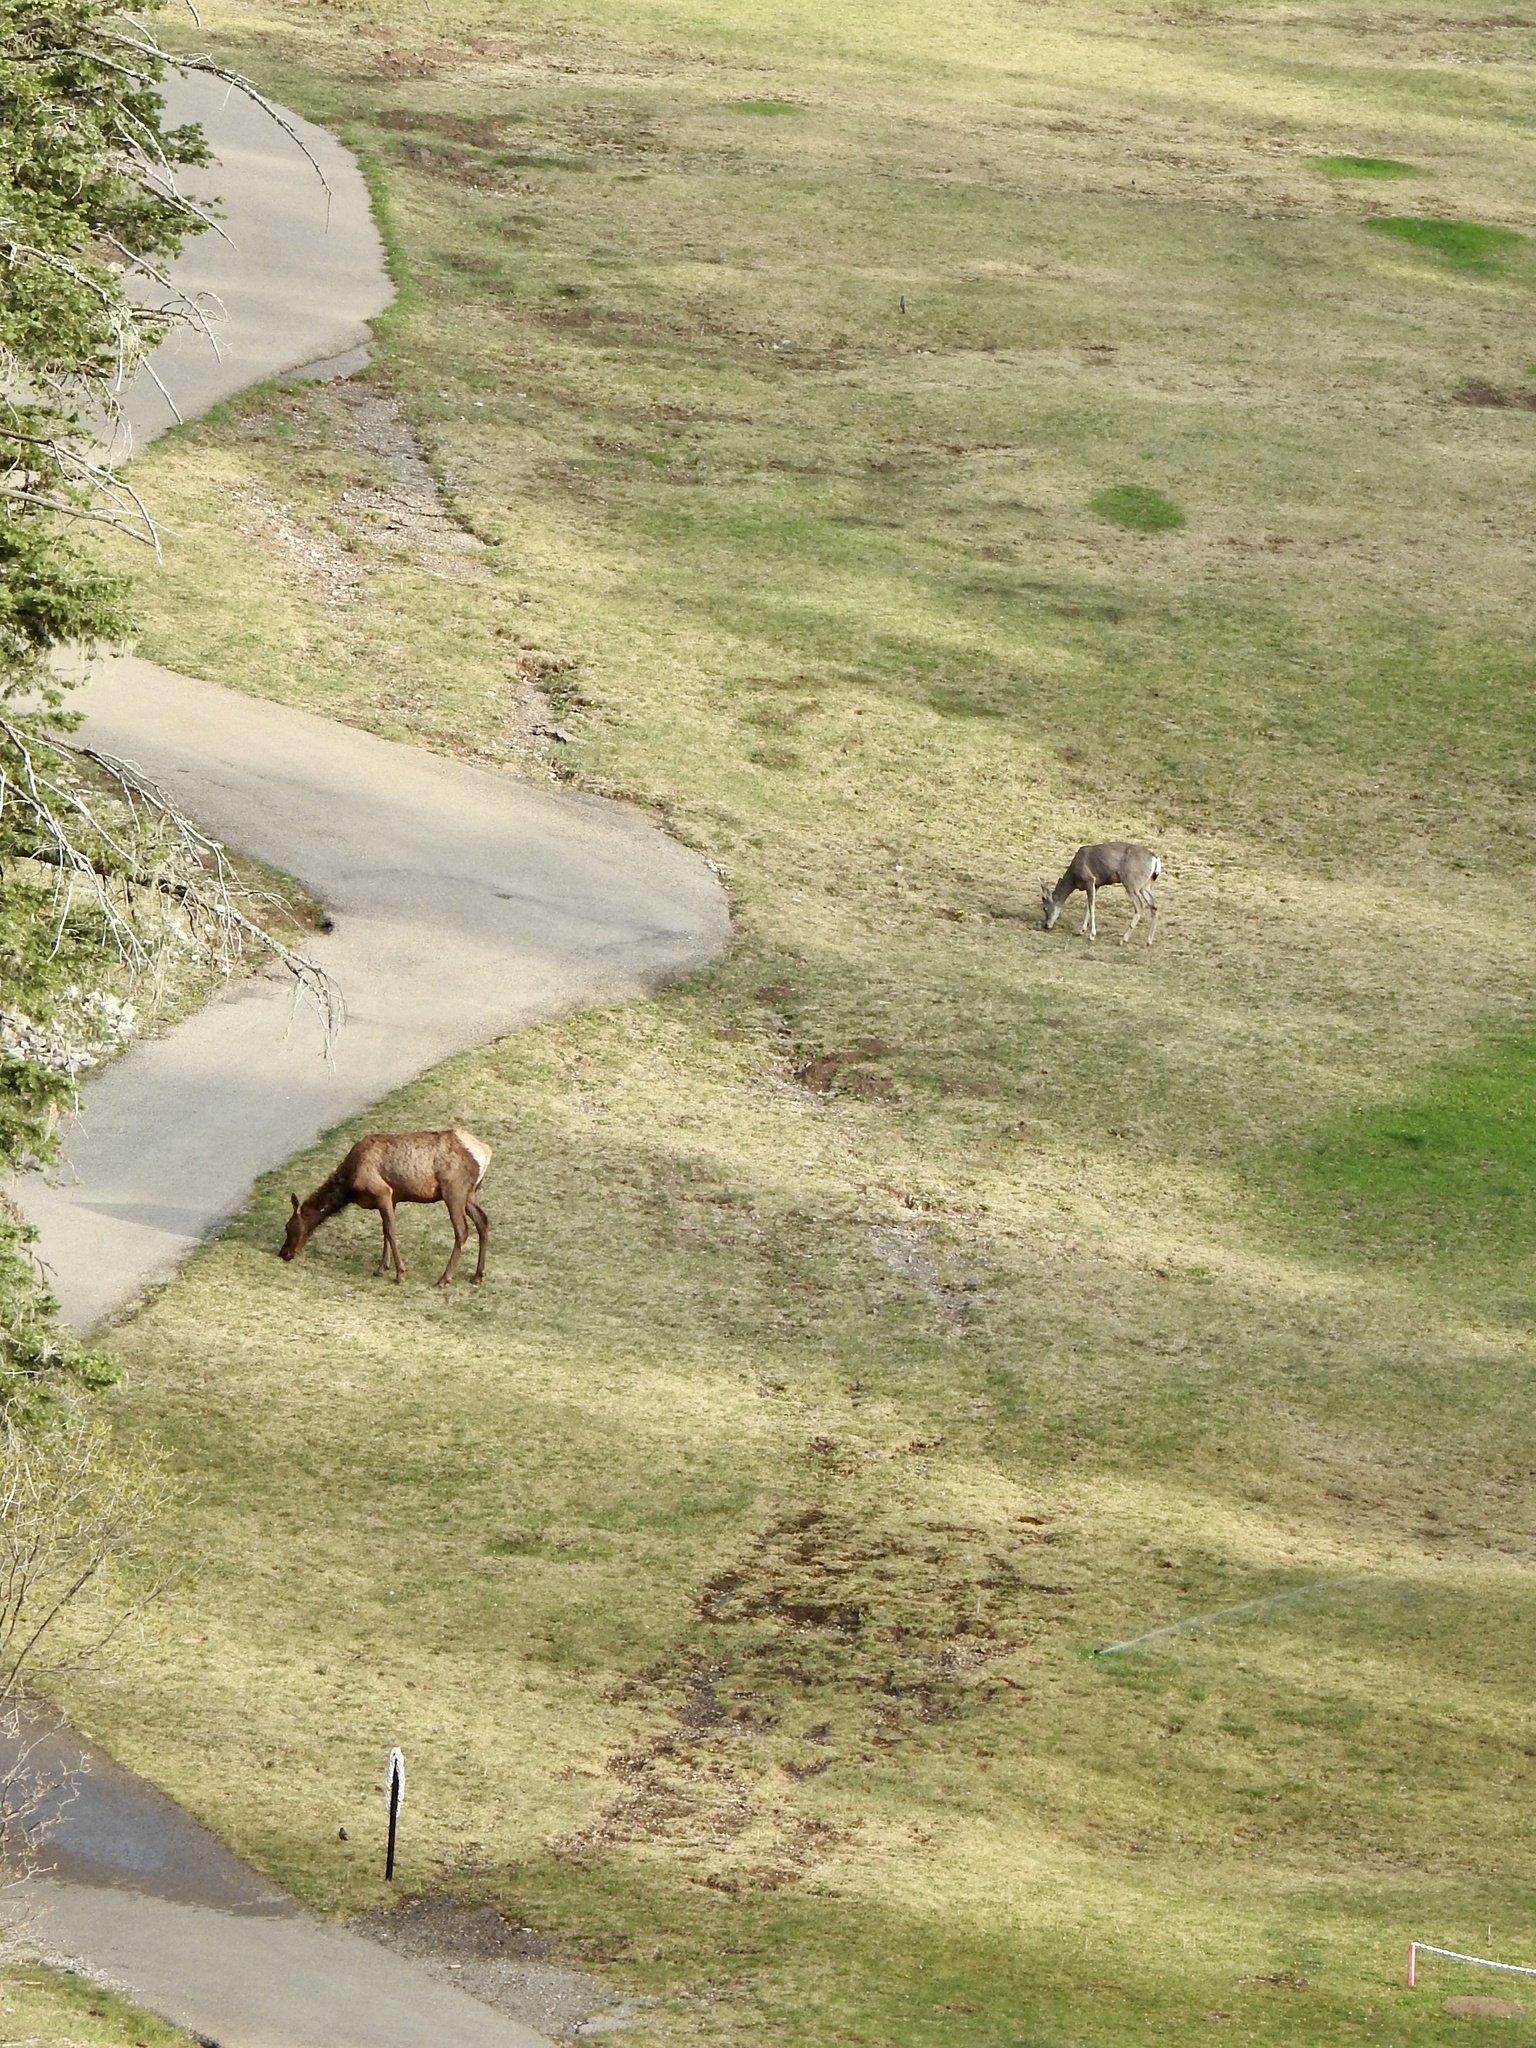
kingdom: Animalia
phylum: Chordata
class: Mammalia
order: Artiodactyla
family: Cervidae
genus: Cervus
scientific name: Cervus elaphus
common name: Red deer
